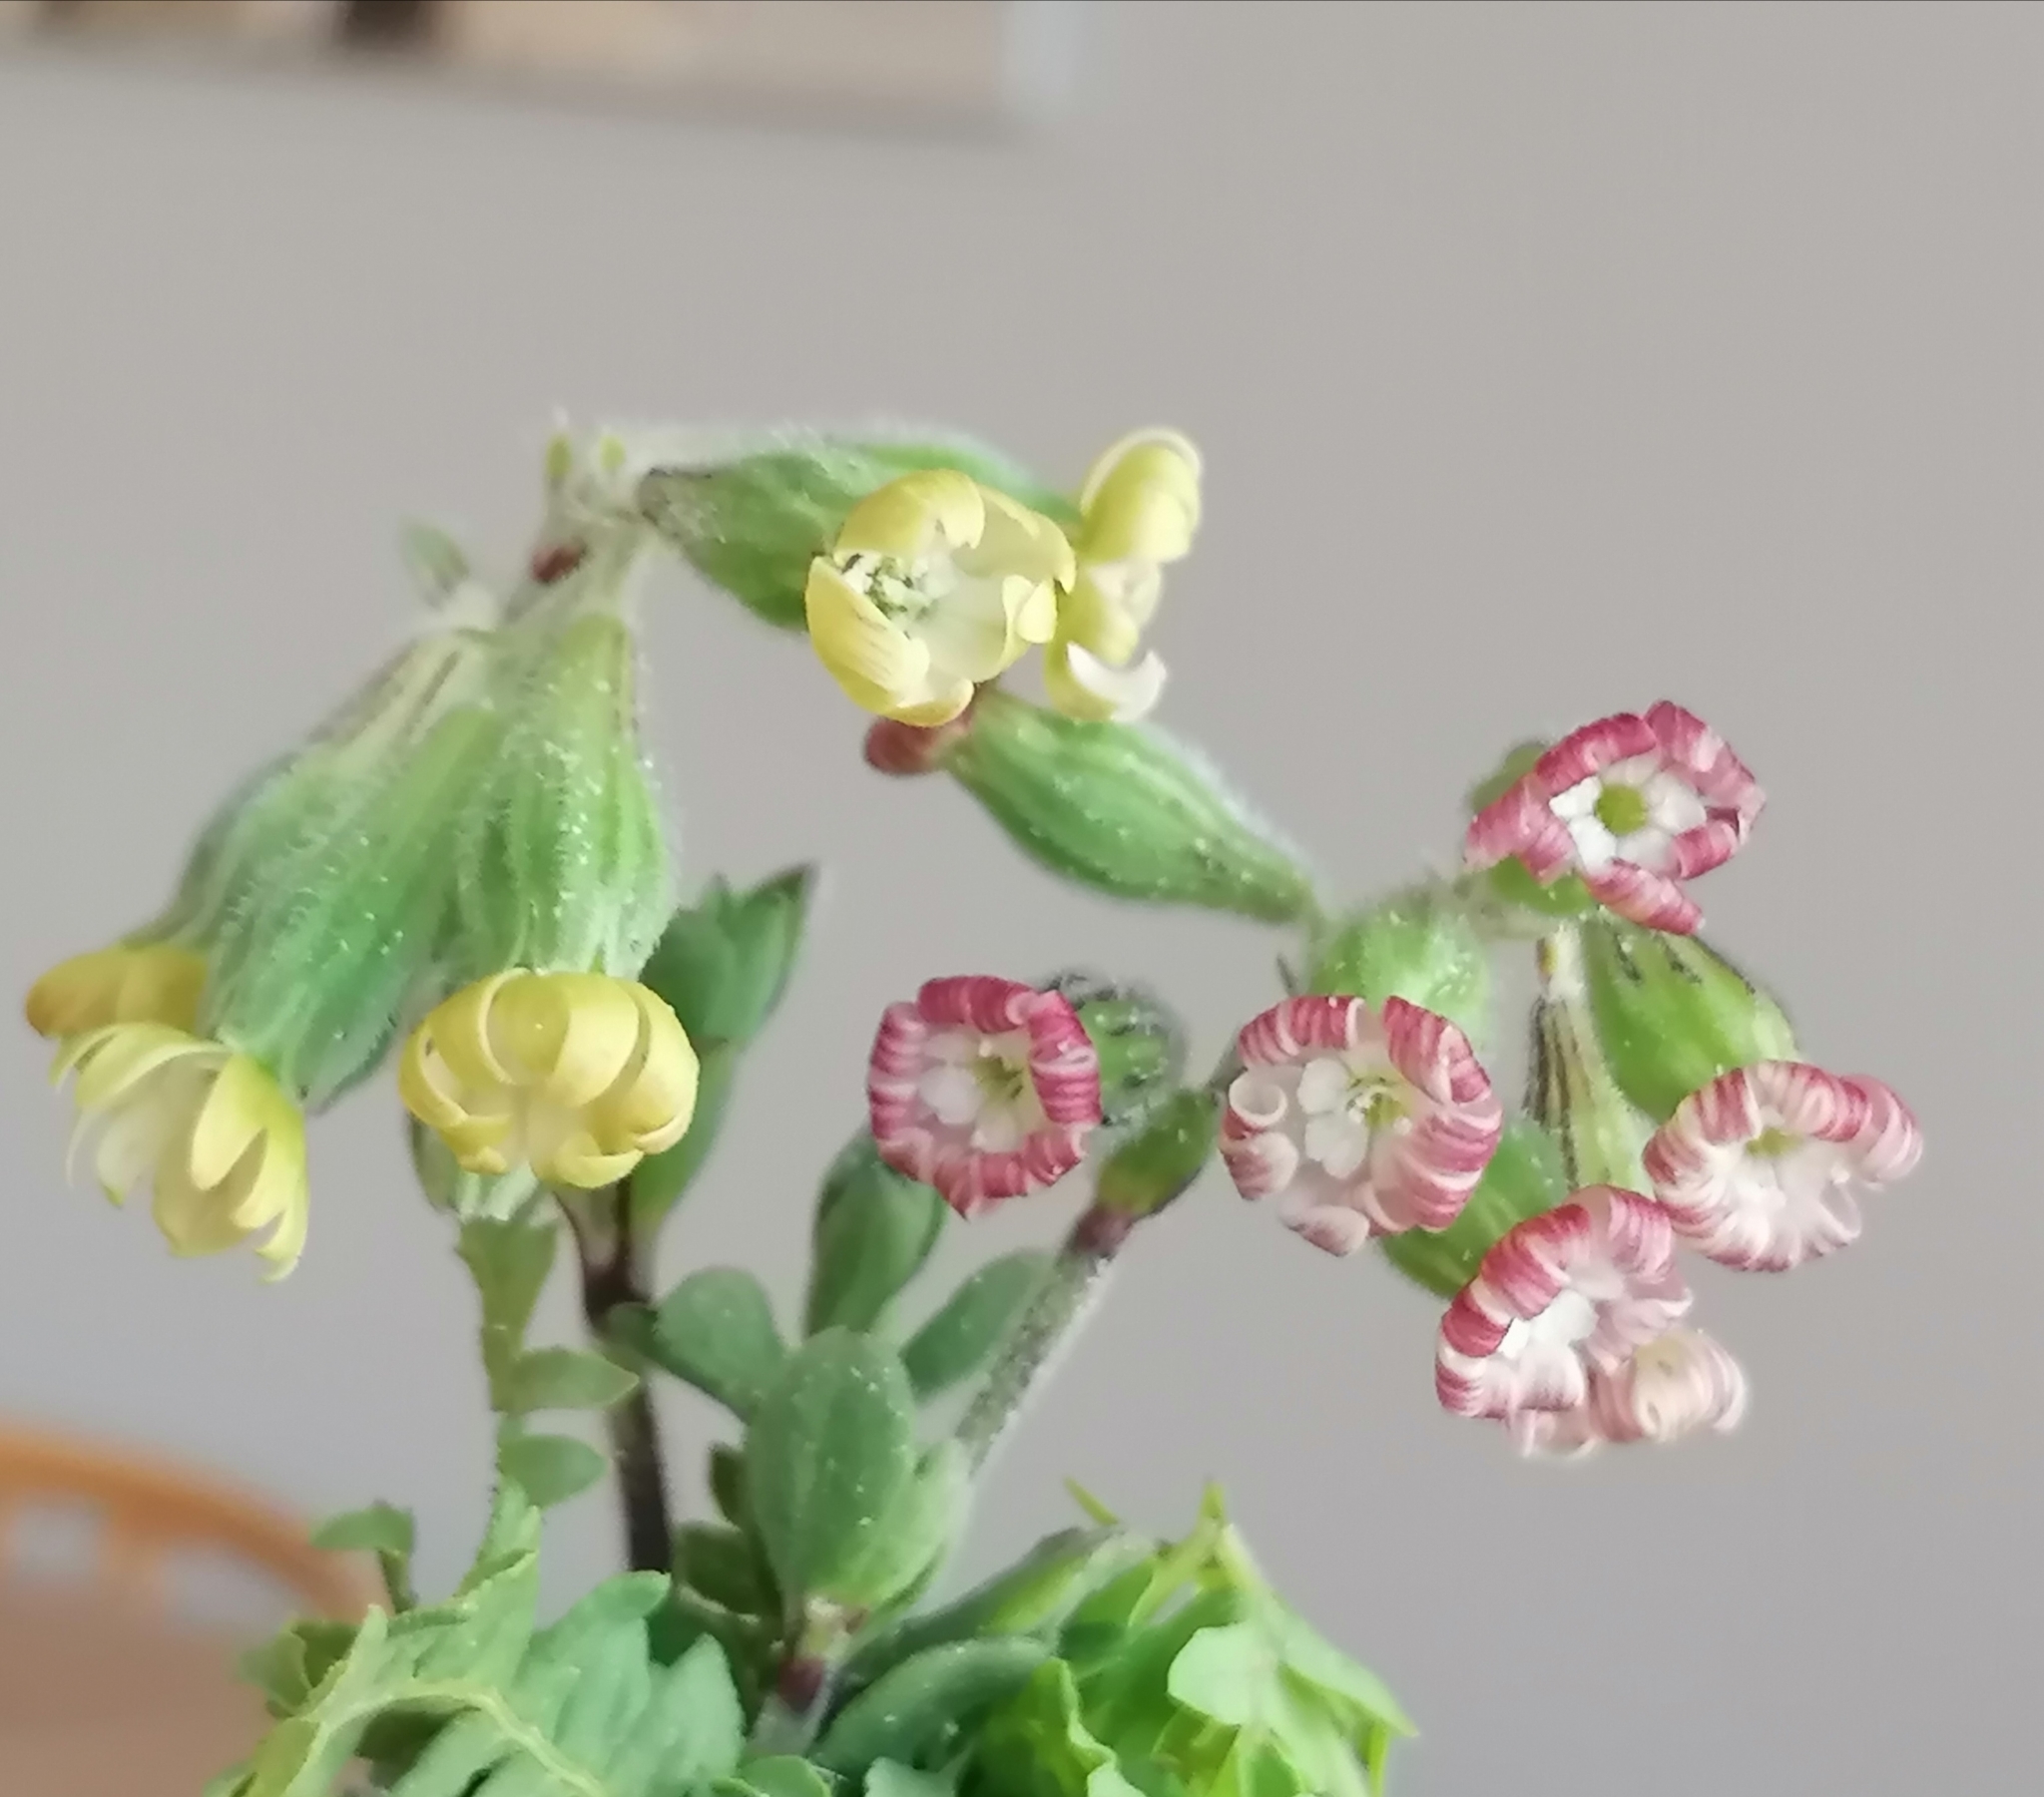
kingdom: Plantae
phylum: Tracheophyta
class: Magnoliopsida
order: Caryophyllales
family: Caryophyllaceae
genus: Silene
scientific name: Silene crassifolia
